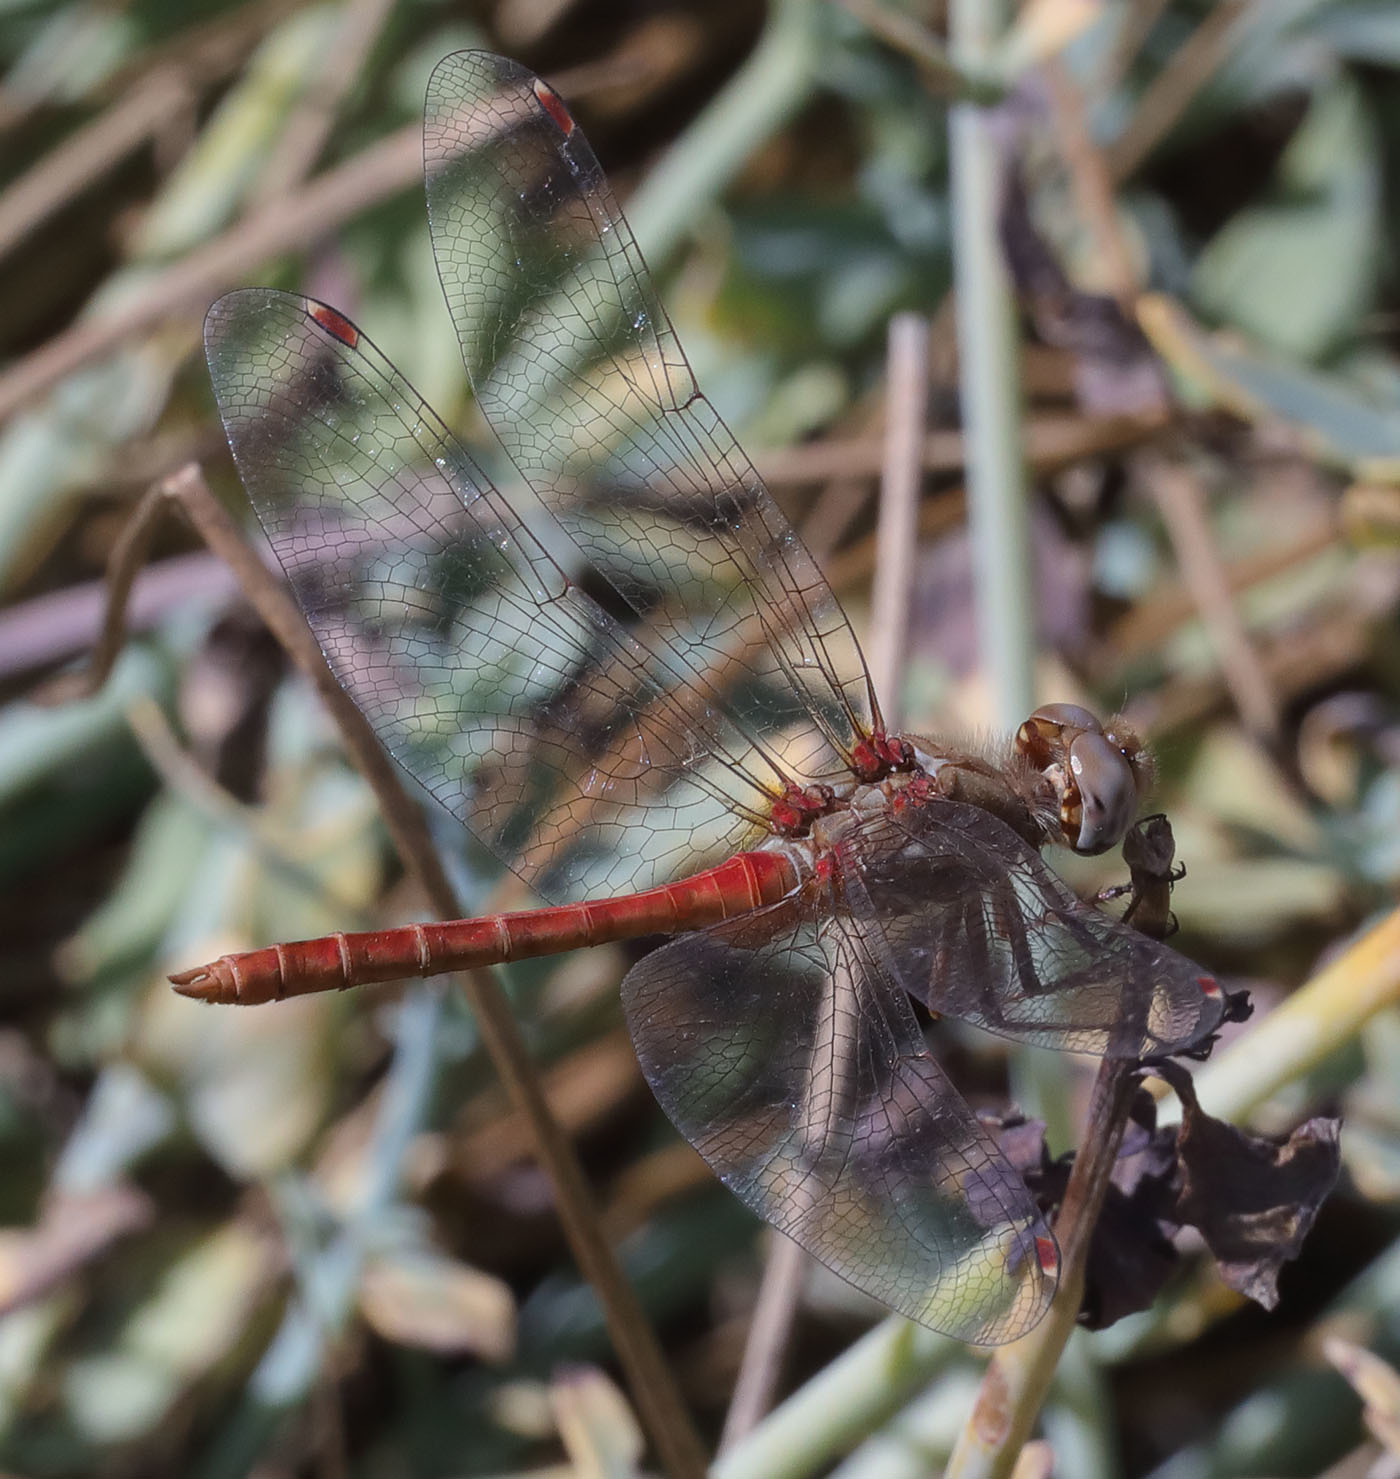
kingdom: Animalia
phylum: Arthropoda
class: Insecta
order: Odonata
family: Libellulidae
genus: Sympetrum
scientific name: Sympetrum pallipes
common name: Striped meadowhawk
